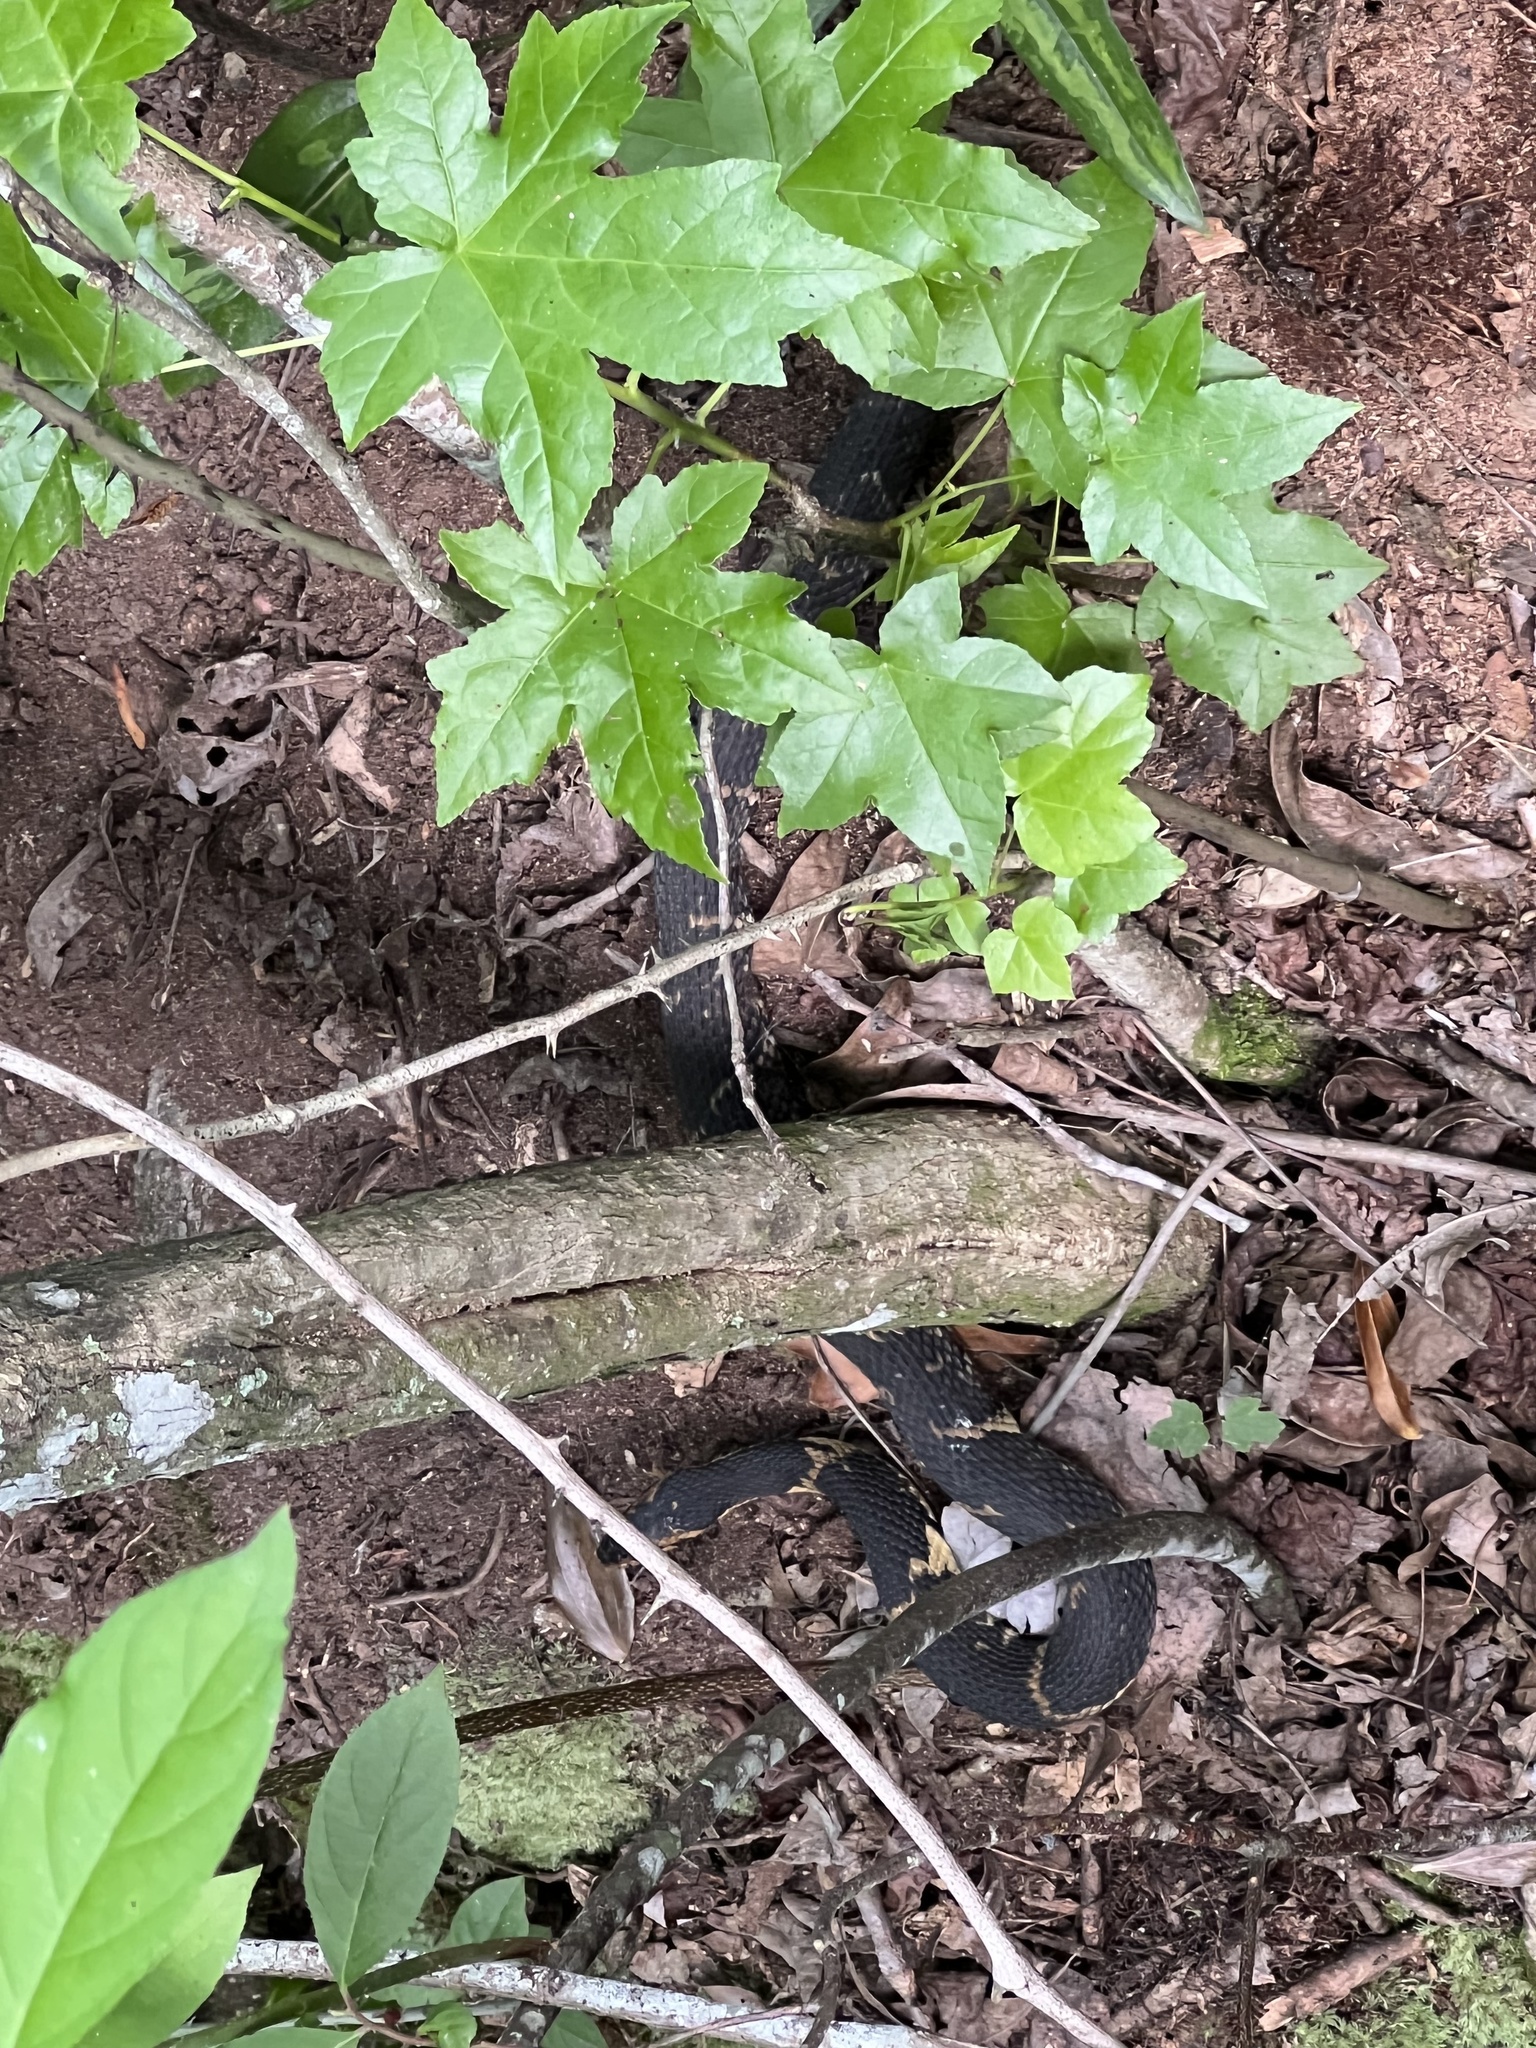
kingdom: Animalia
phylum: Chordata
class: Squamata
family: Colubridae
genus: Nerodia
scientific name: Nerodia fasciata
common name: Southern water snake
